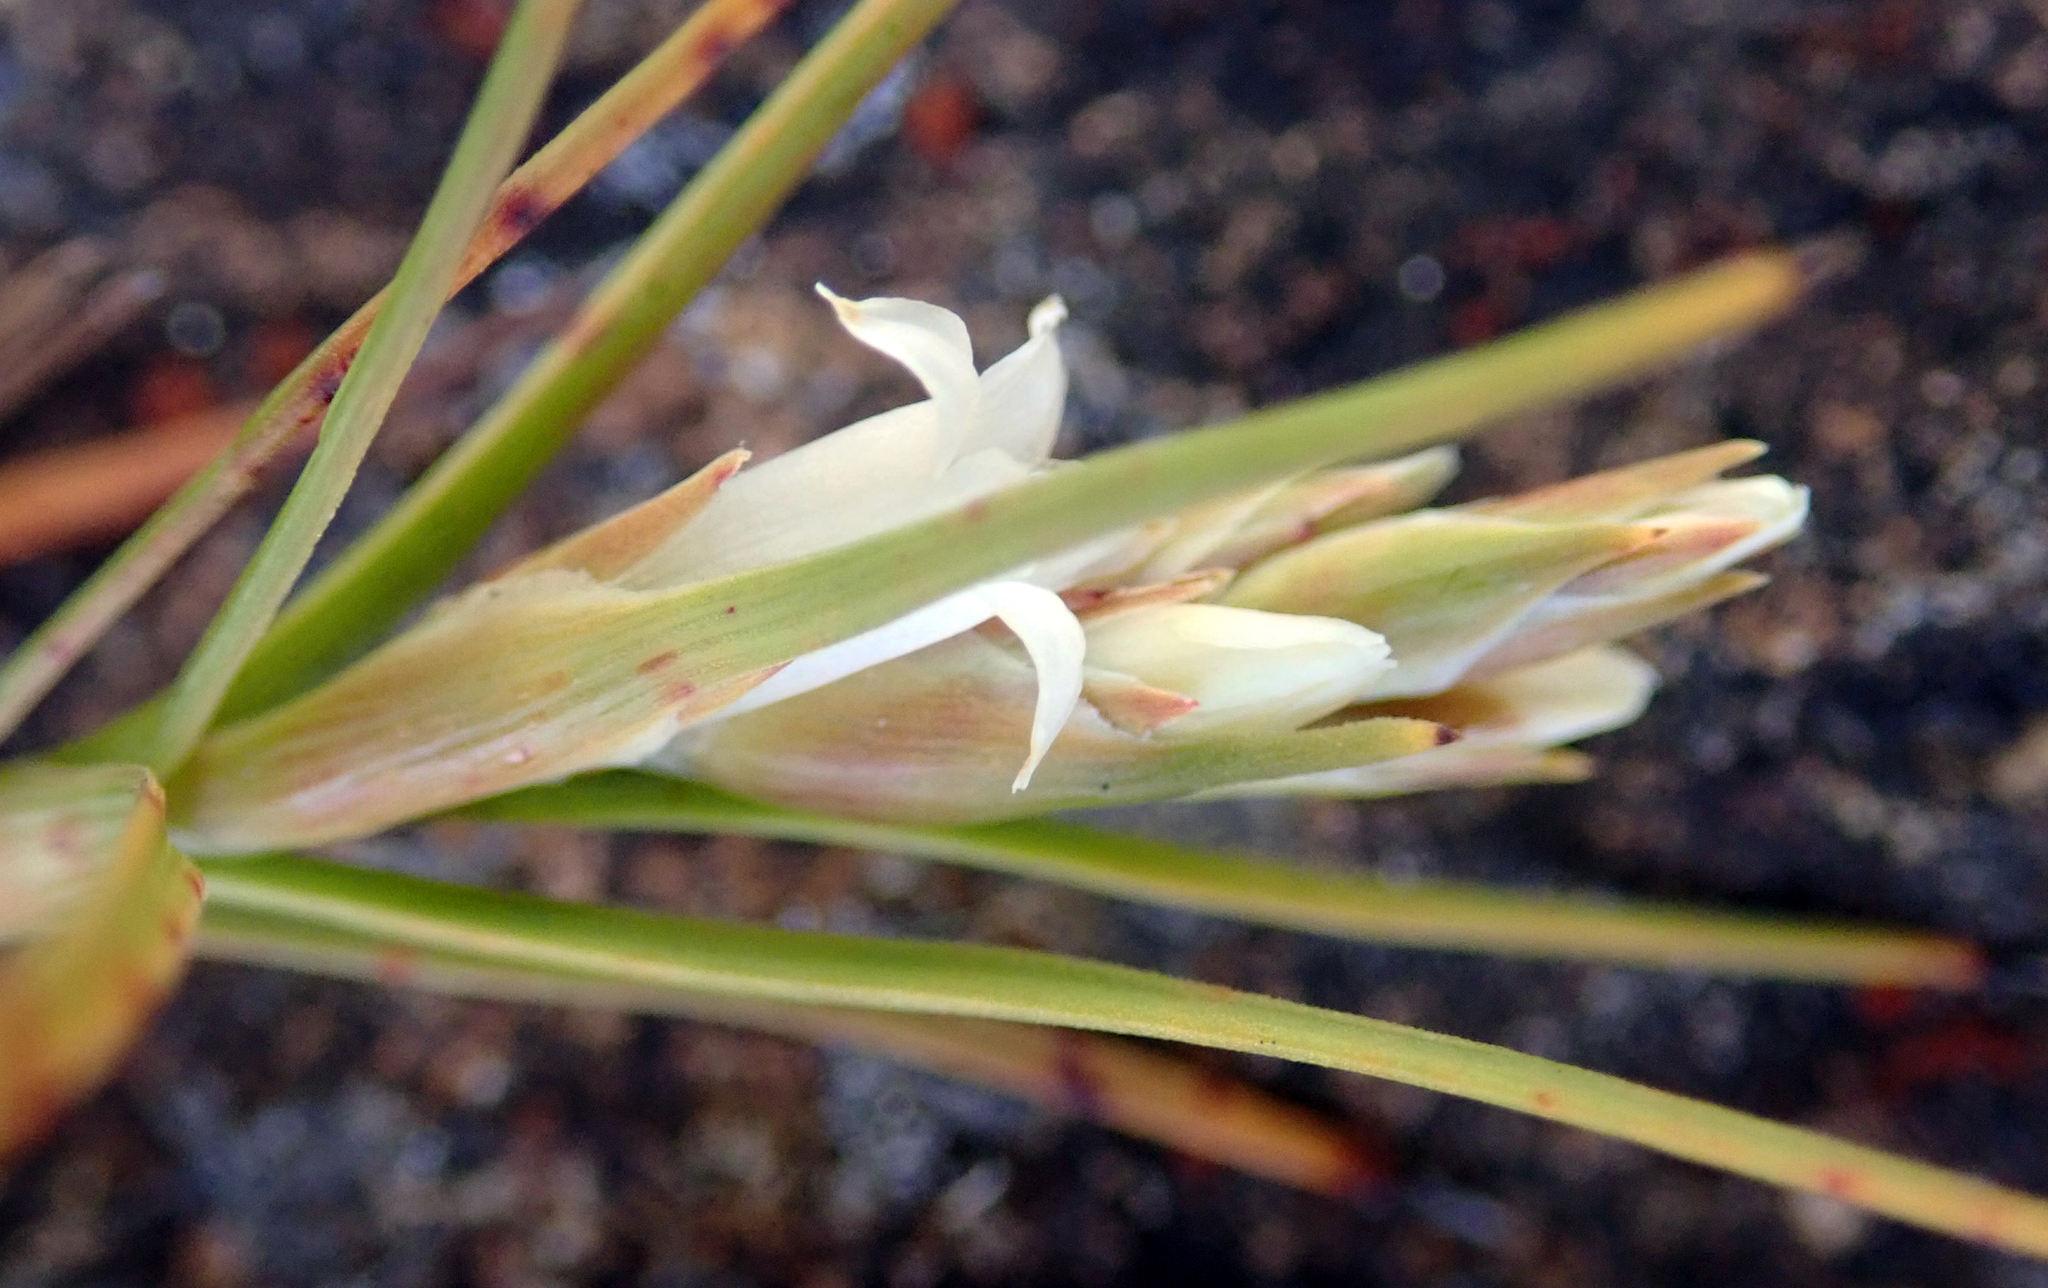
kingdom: Plantae
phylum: Tracheophyta
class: Magnoliopsida
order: Ericales
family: Ericaceae
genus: Dracophyllum
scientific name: Dracophyllum ophioliticum
